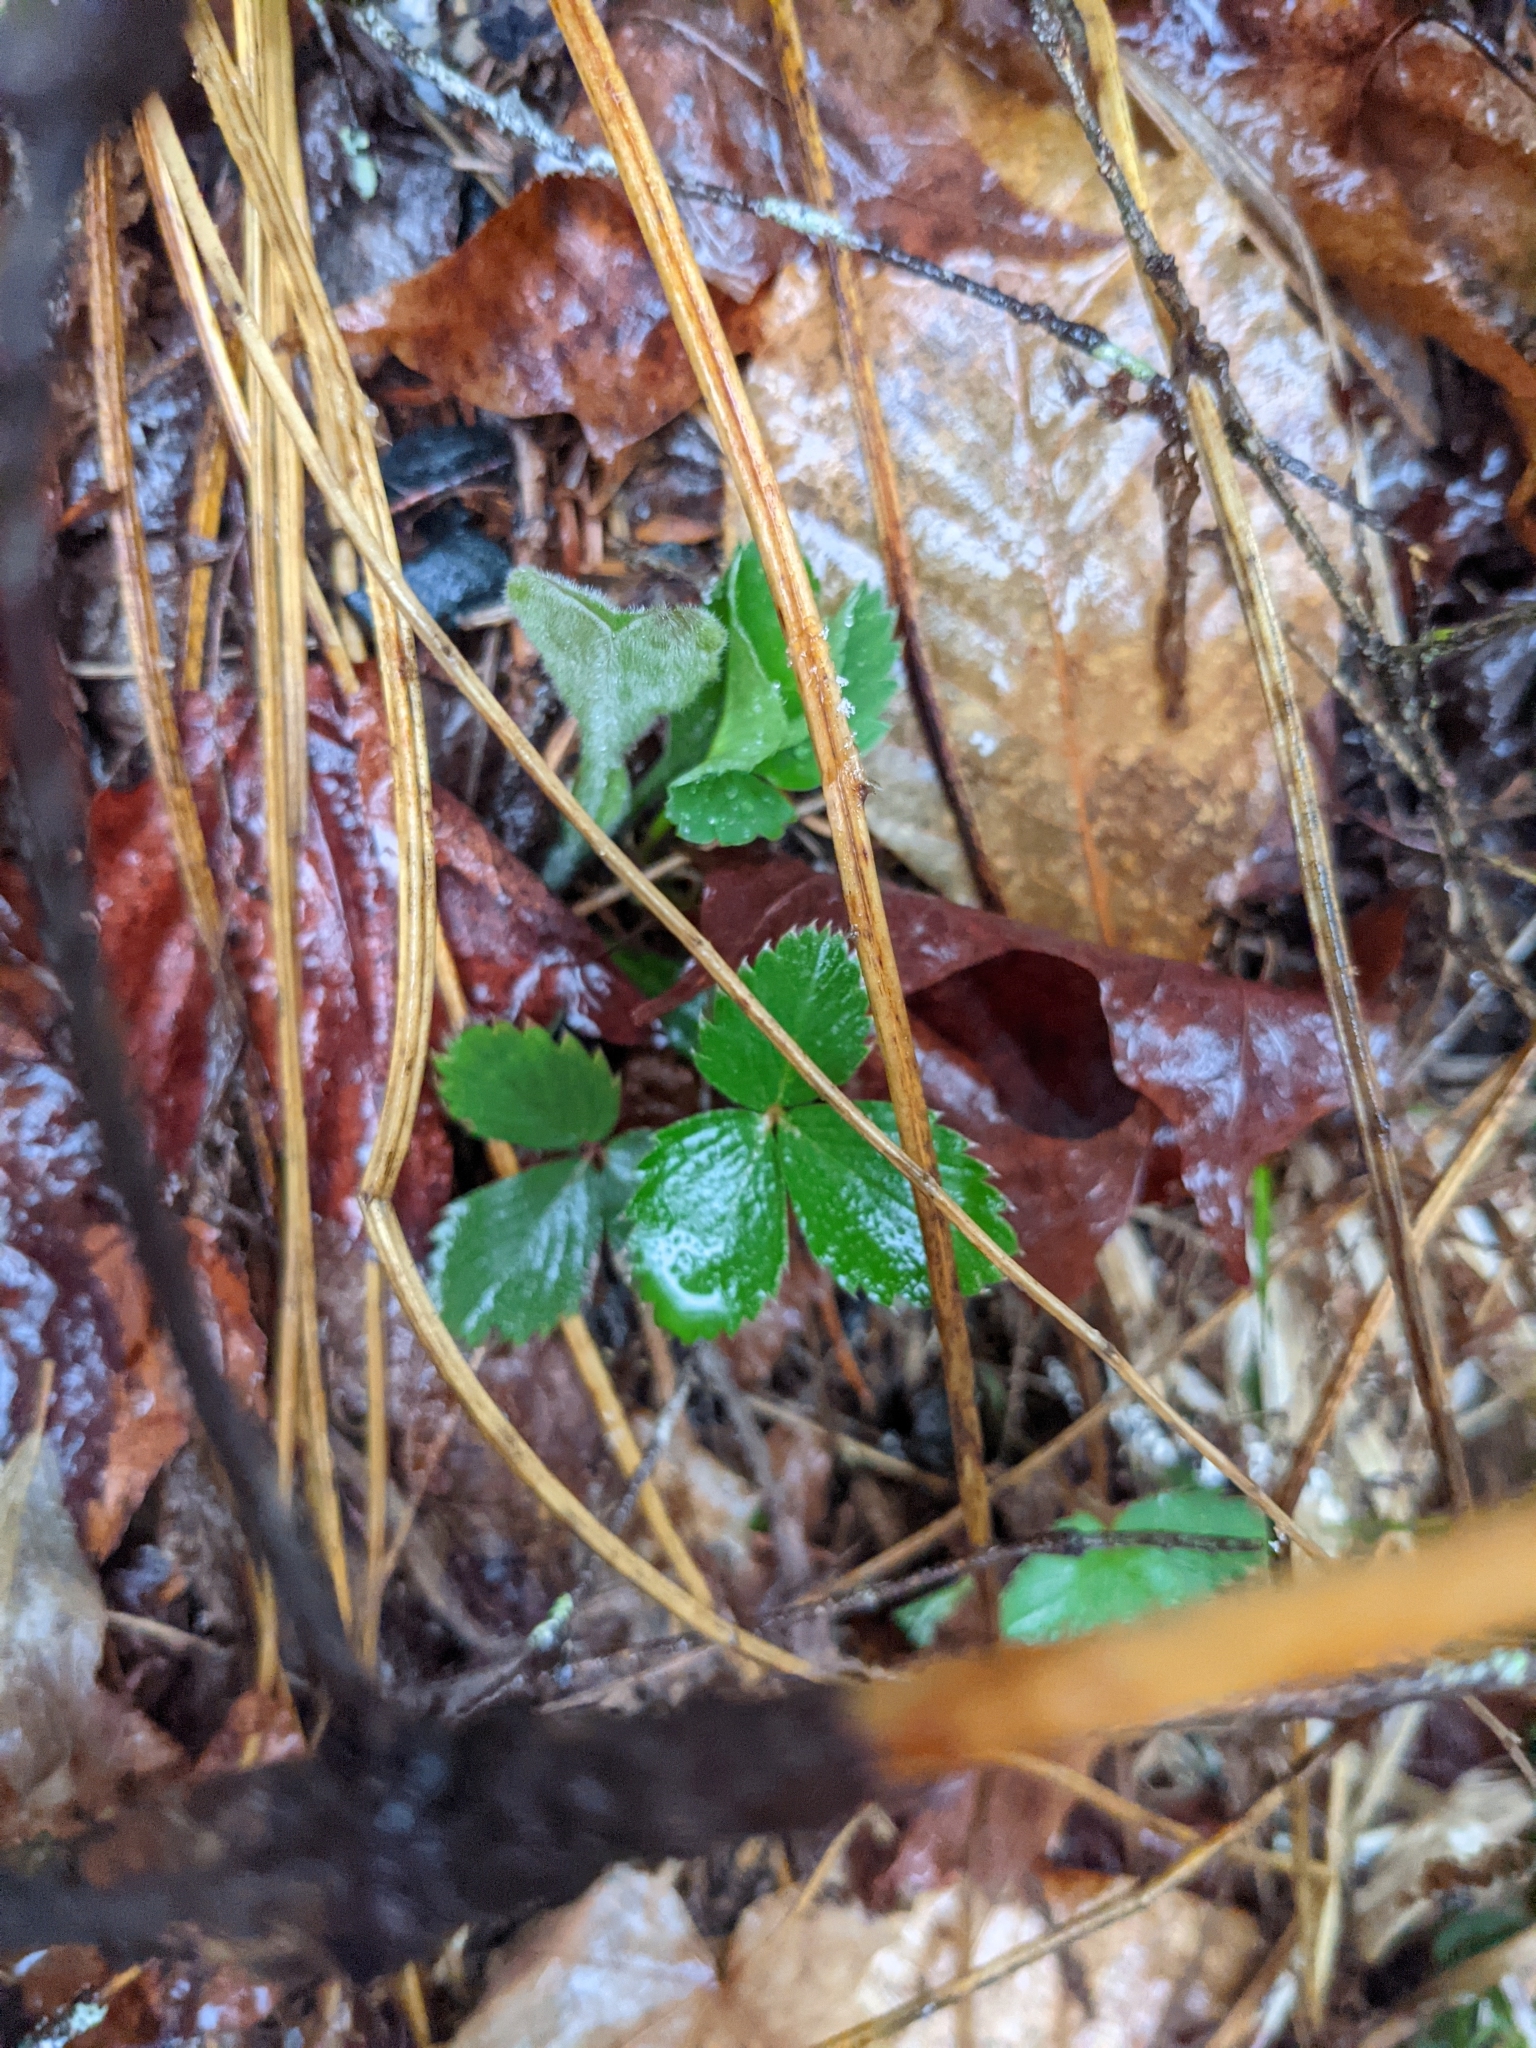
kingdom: Plantae
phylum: Tracheophyta
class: Magnoliopsida
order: Rosales
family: Rosaceae
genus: Fragaria
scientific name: Fragaria vesca
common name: Wild strawberry
